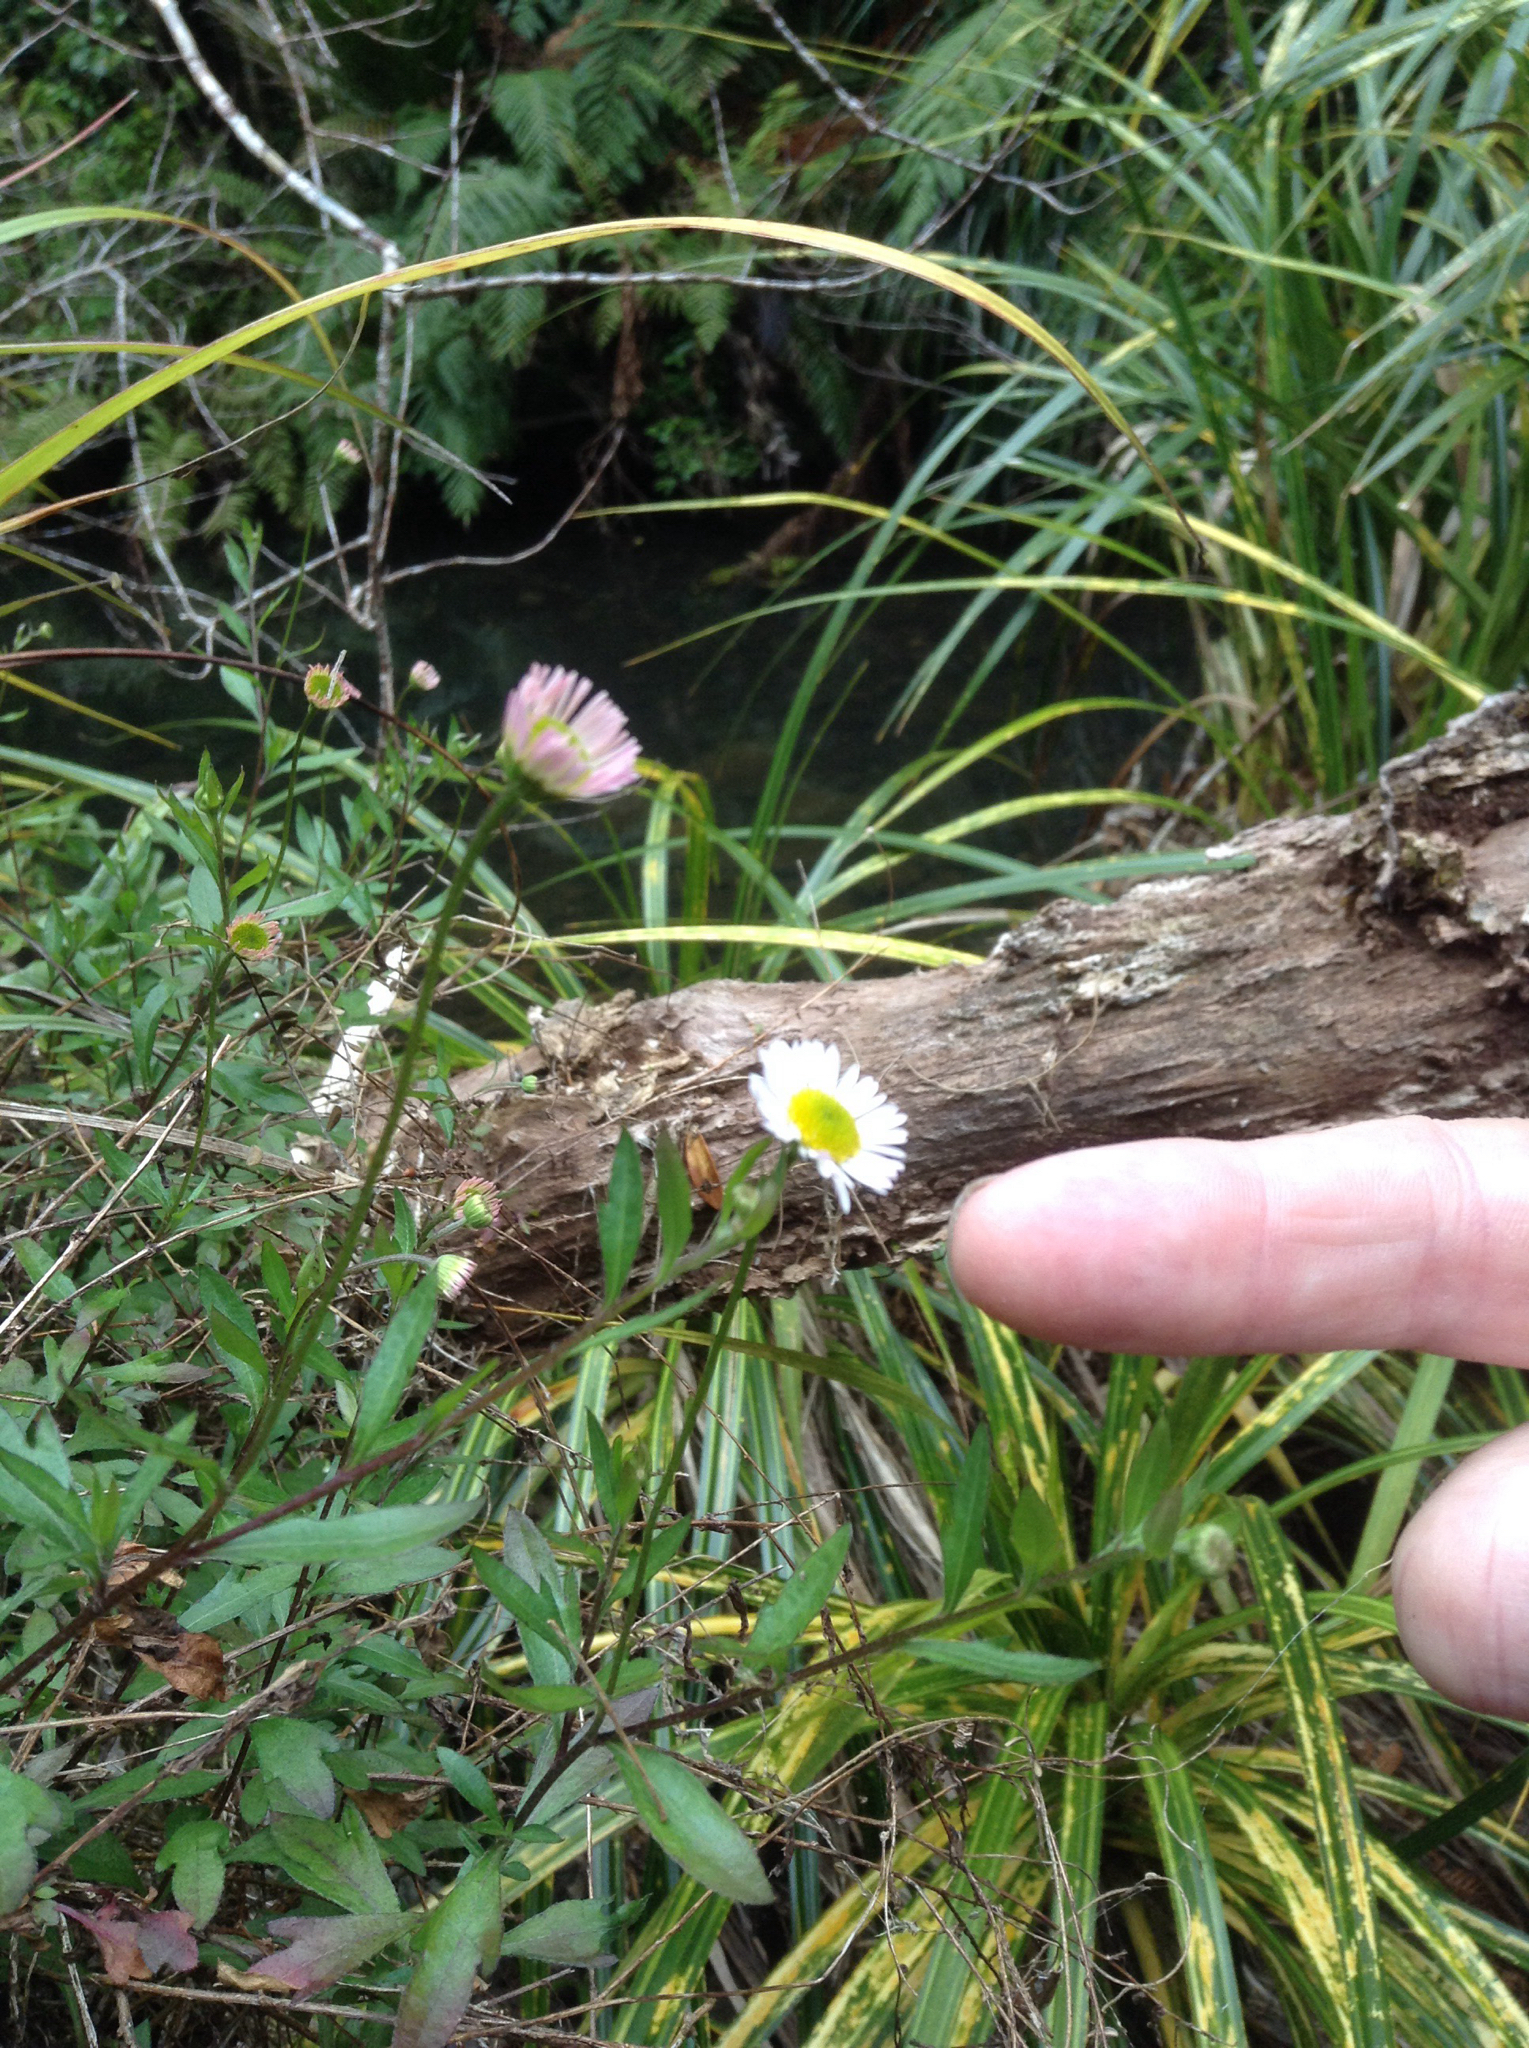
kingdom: Plantae
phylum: Tracheophyta
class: Magnoliopsida
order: Asterales
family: Asteraceae
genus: Erigeron
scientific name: Erigeron karvinskianus
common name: Mexican fleabane
